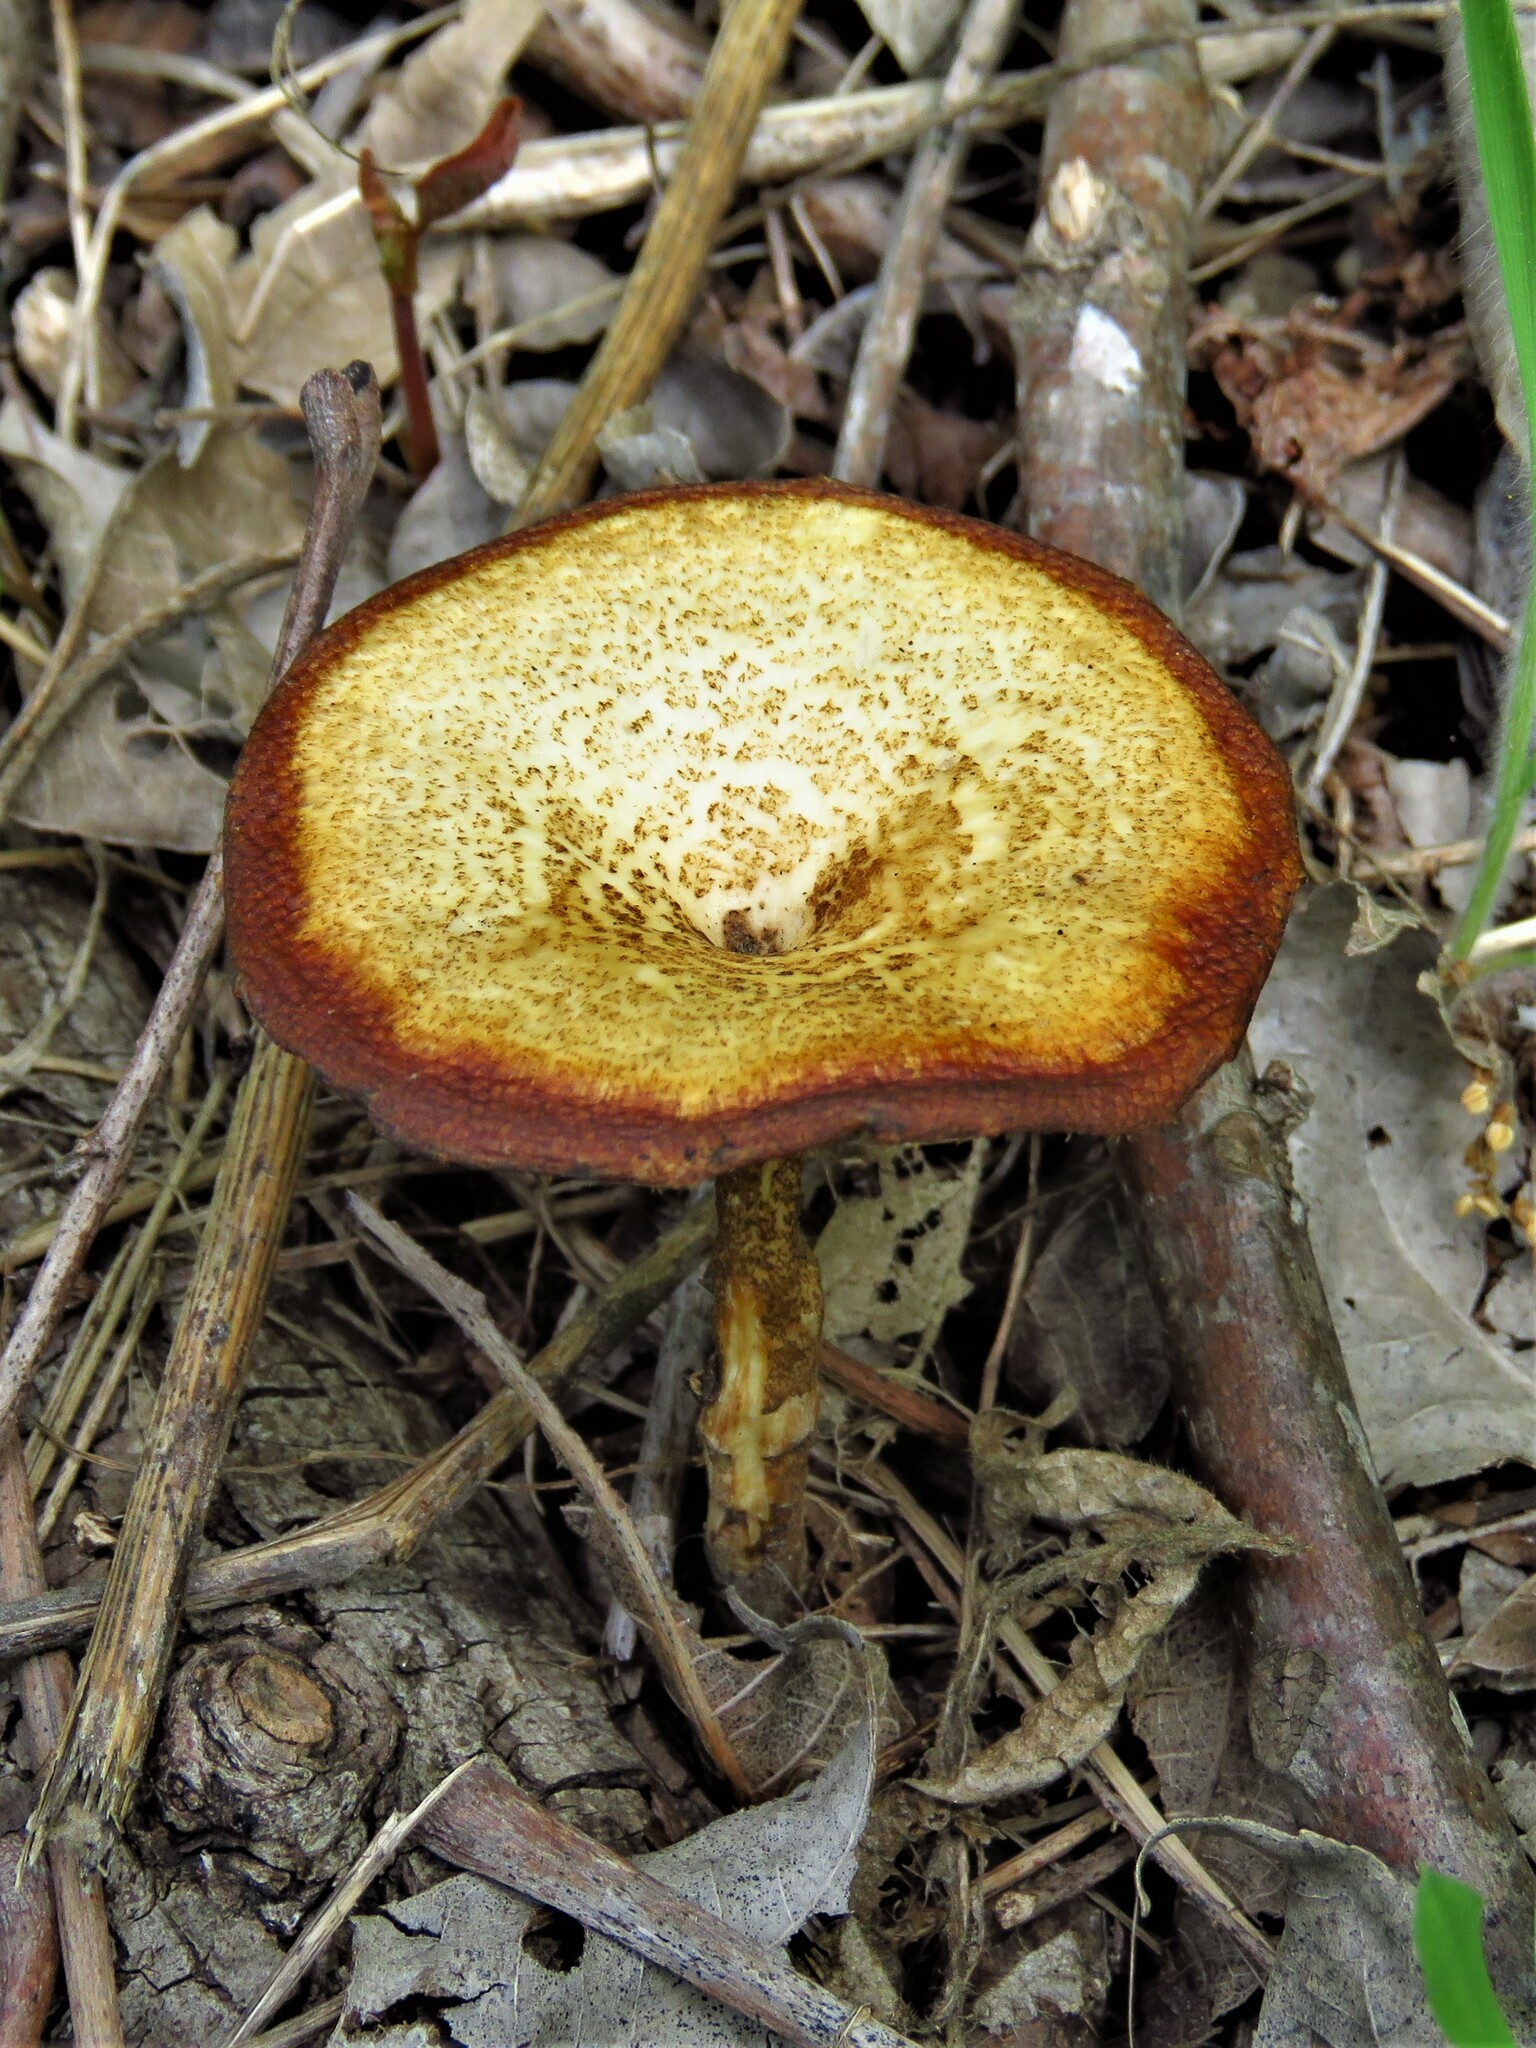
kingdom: Fungi
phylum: Basidiomycota
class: Agaricomycetes
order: Polyporales
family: Polyporaceae
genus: Lentinus
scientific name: Lentinus arcularius
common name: Spring polypore
